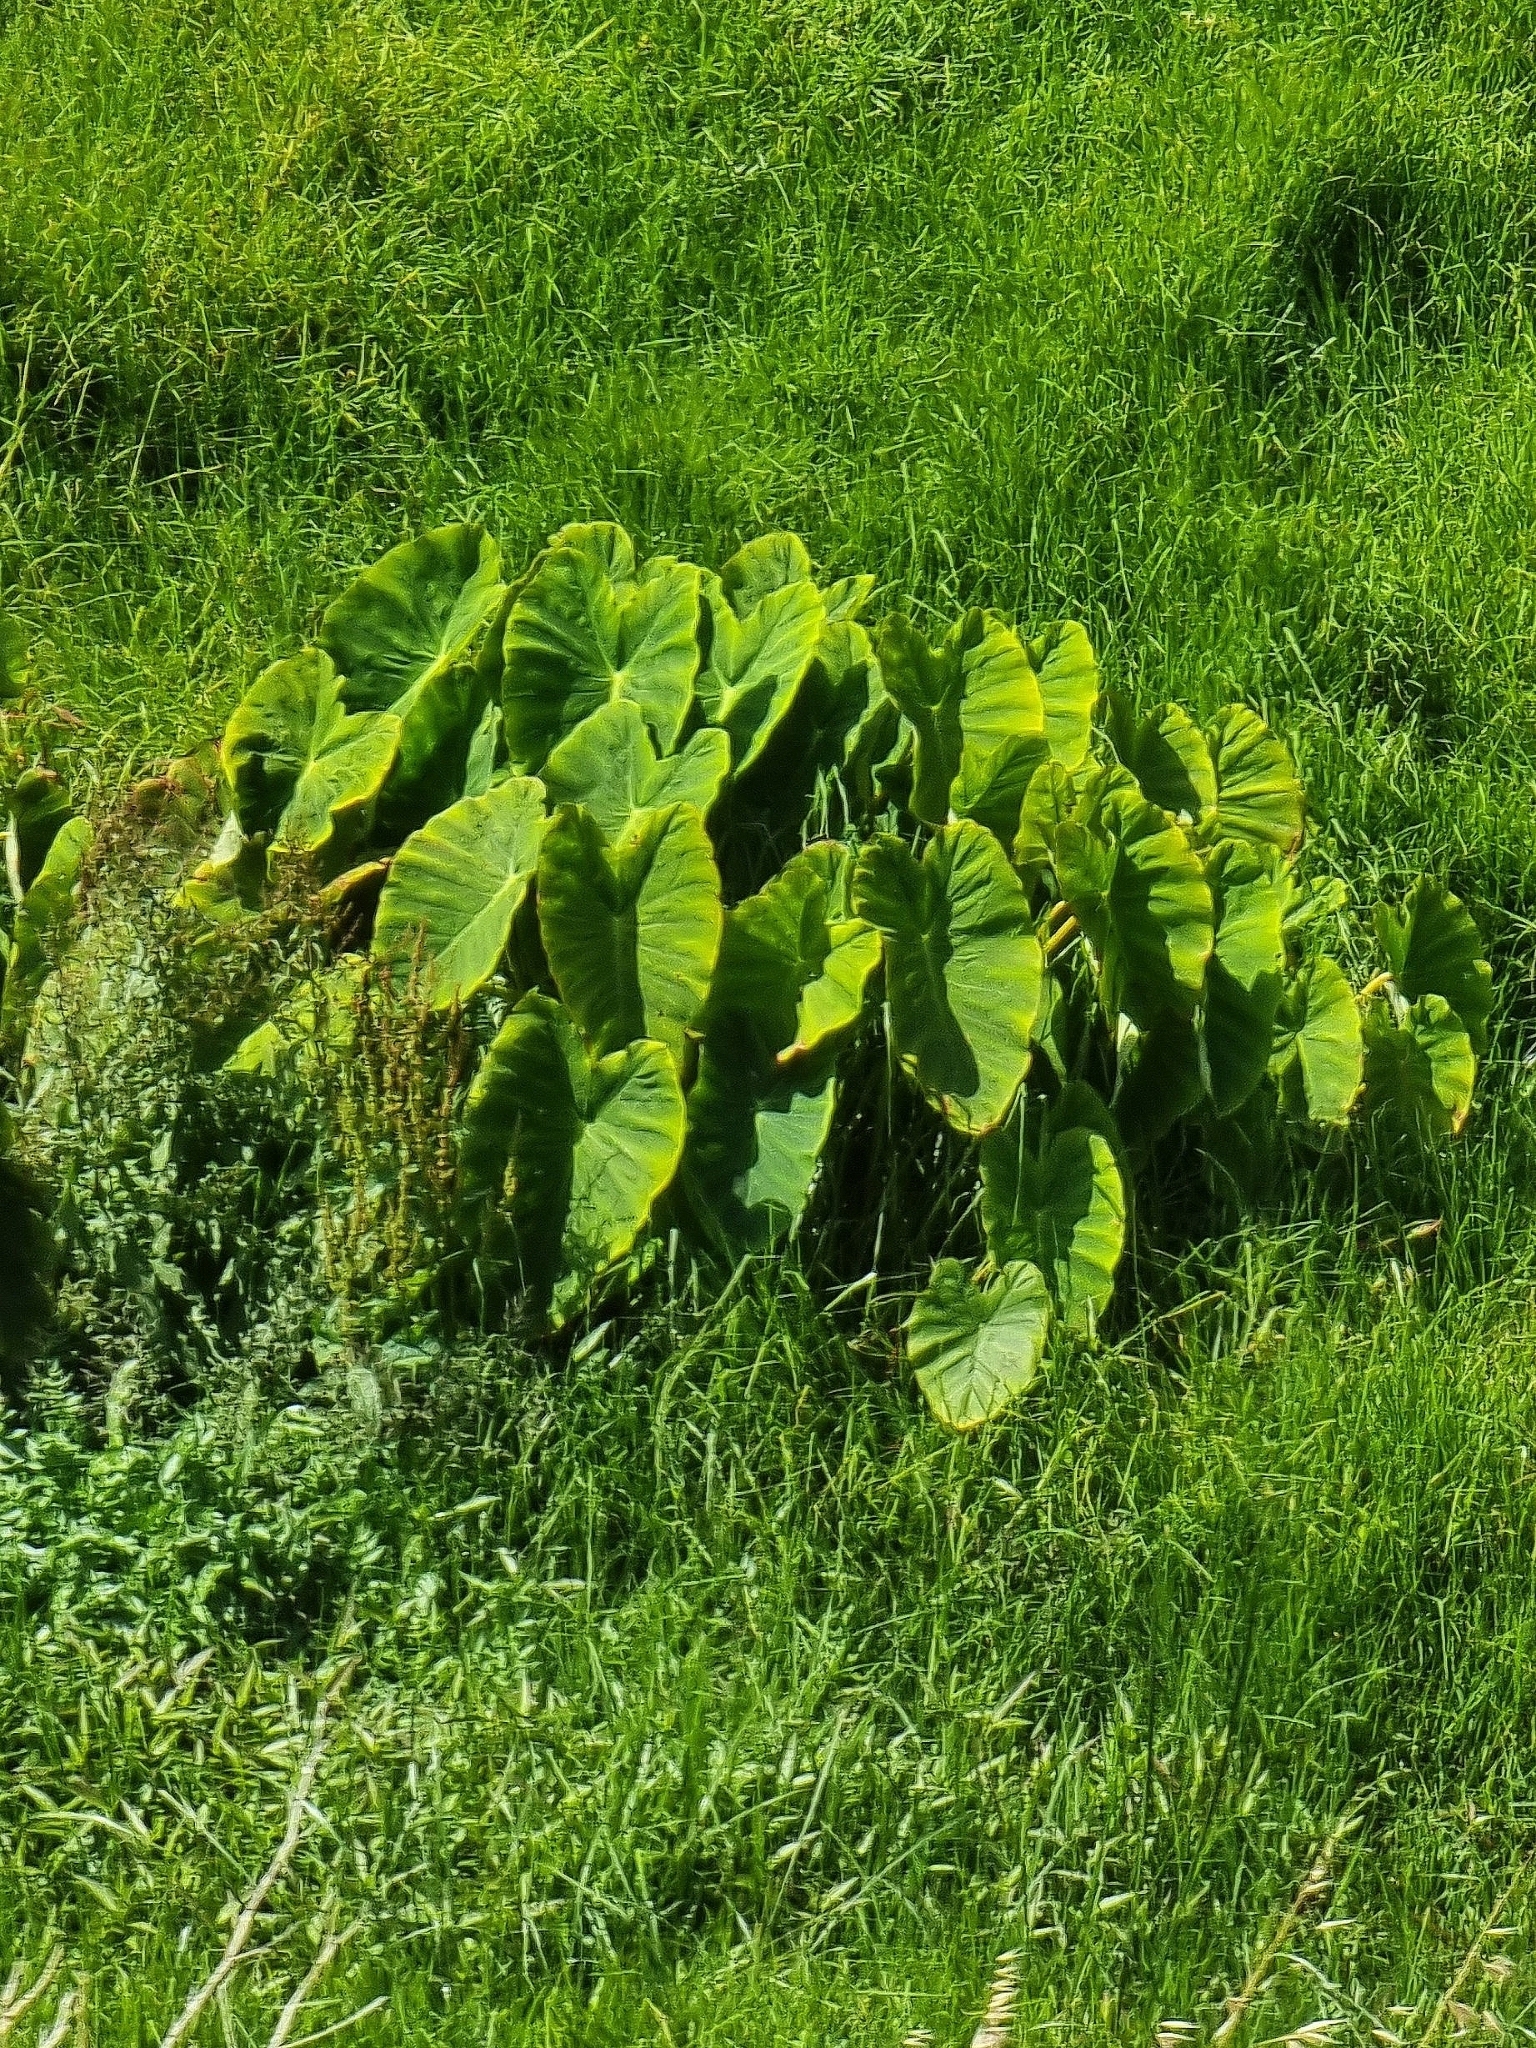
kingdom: Plantae
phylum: Tracheophyta
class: Liliopsida
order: Alismatales
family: Araceae
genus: Colocasia
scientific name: Colocasia esculenta
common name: Taro
